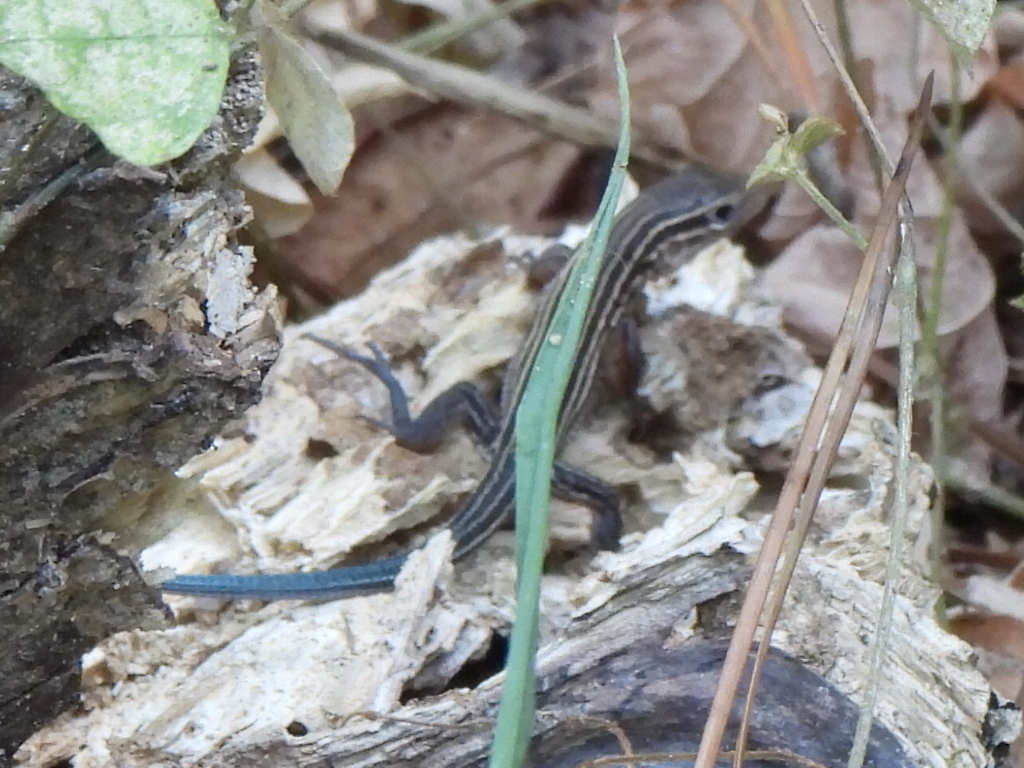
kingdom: Animalia
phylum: Chordata
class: Squamata
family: Teiidae
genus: Aspidoscelis
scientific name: Aspidoscelis sexlineatus
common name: Six-lined racerunner
